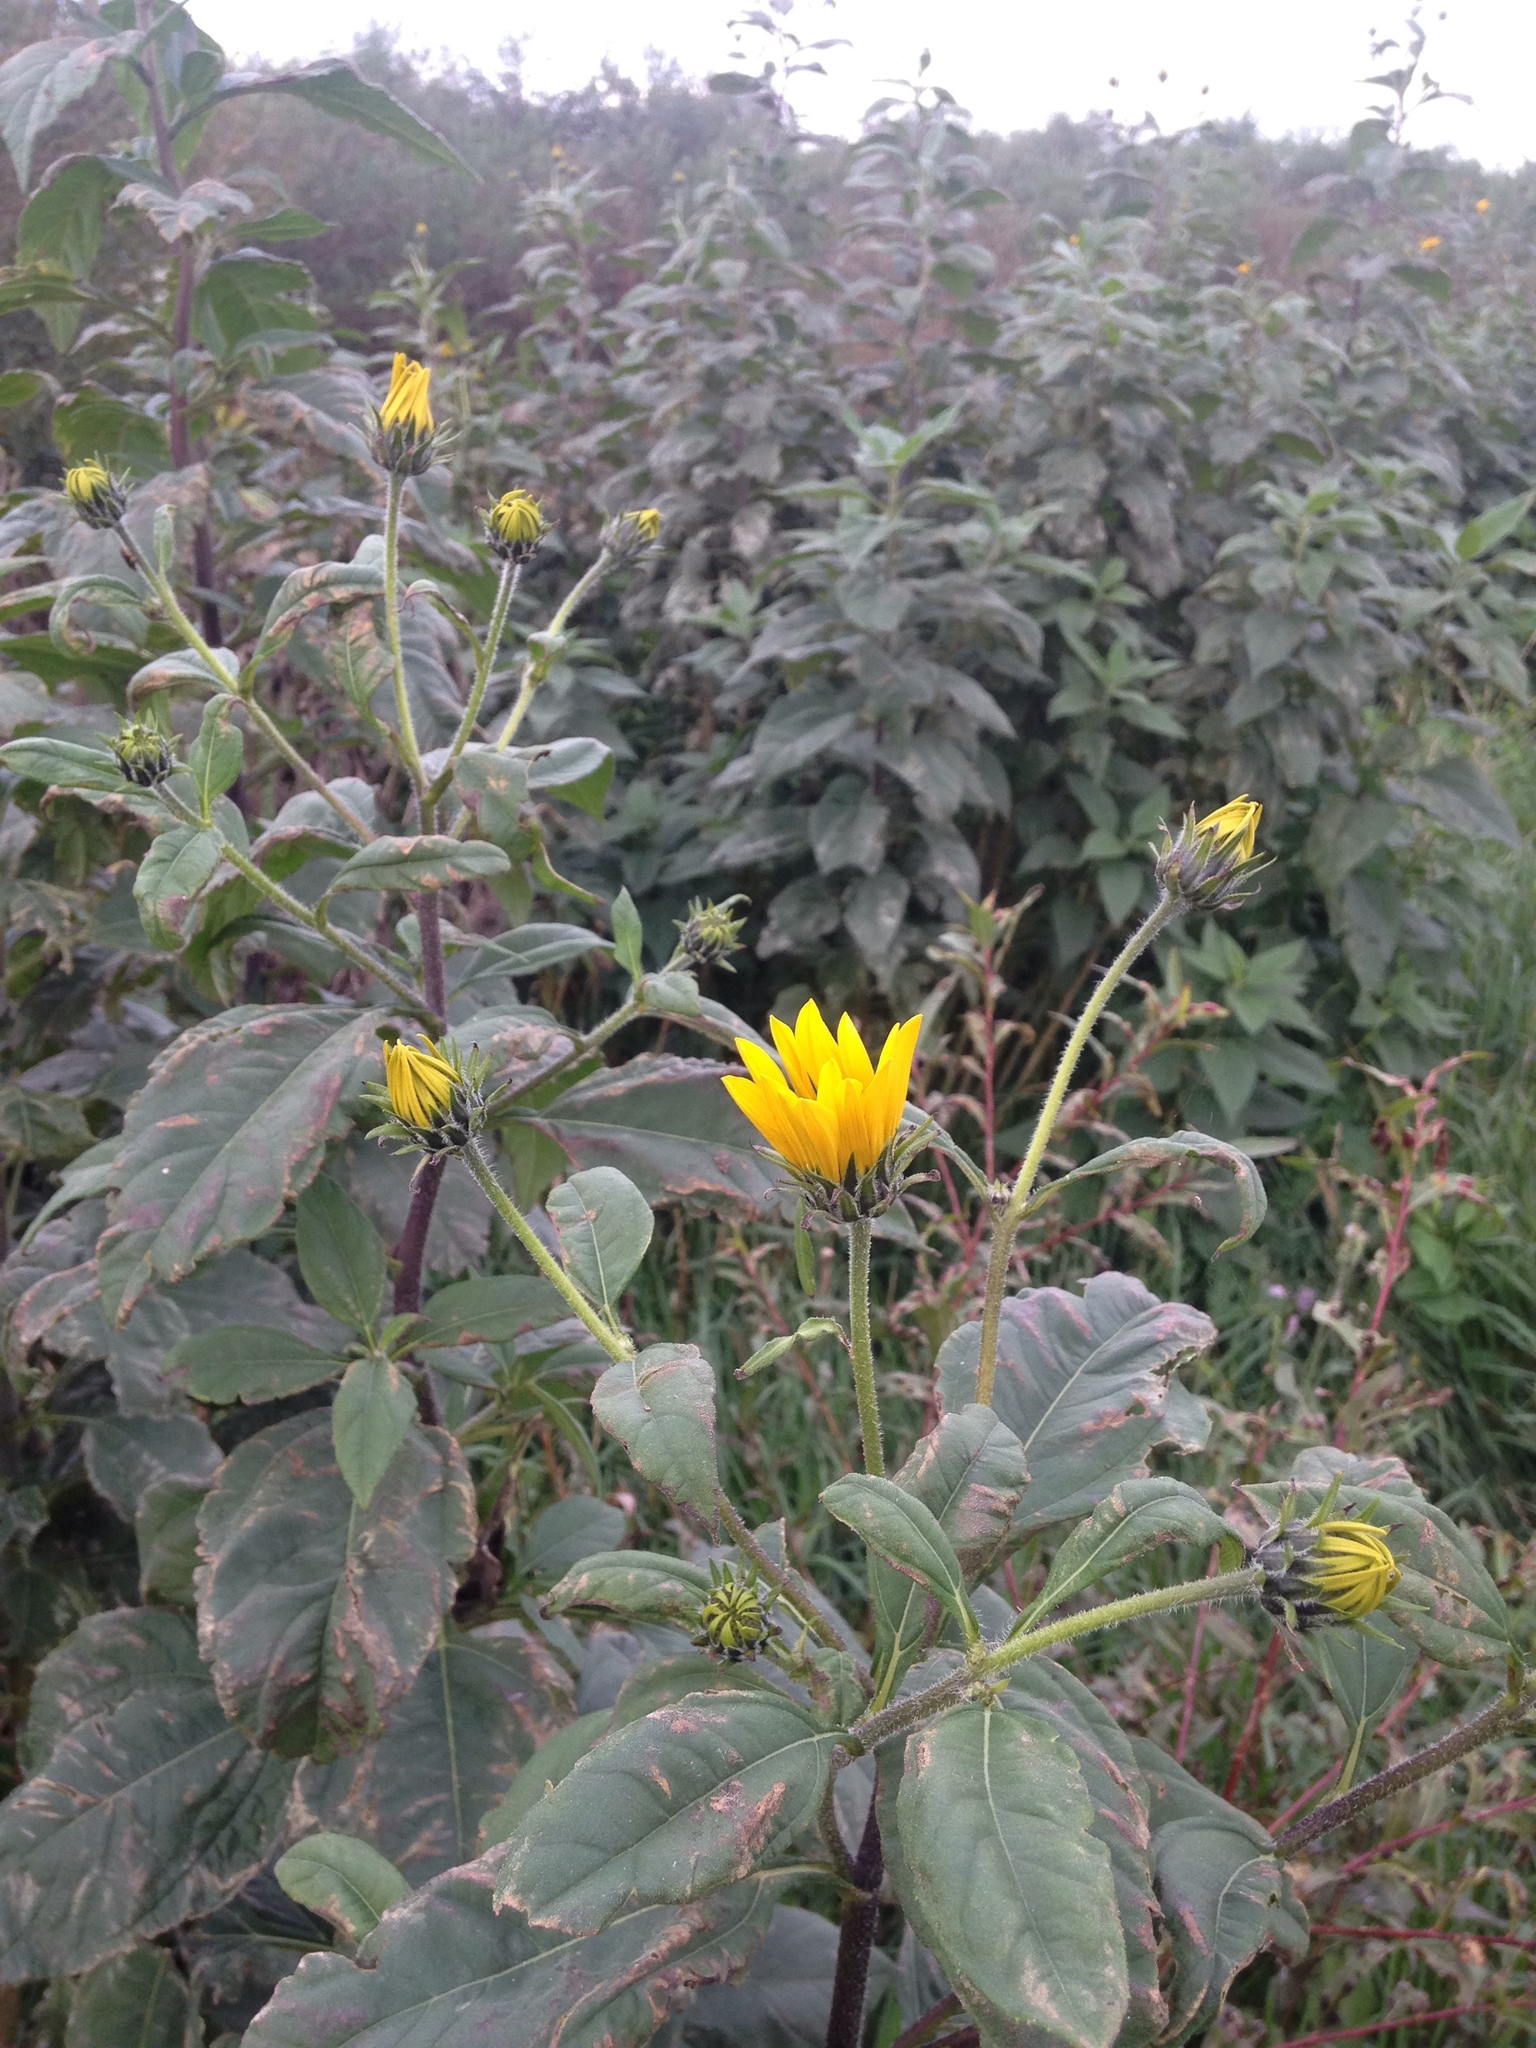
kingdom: Plantae
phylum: Tracheophyta
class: Magnoliopsida
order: Asterales
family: Asteraceae
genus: Helianthus
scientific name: Helianthus tuberosus
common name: Jerusalem artichoke
